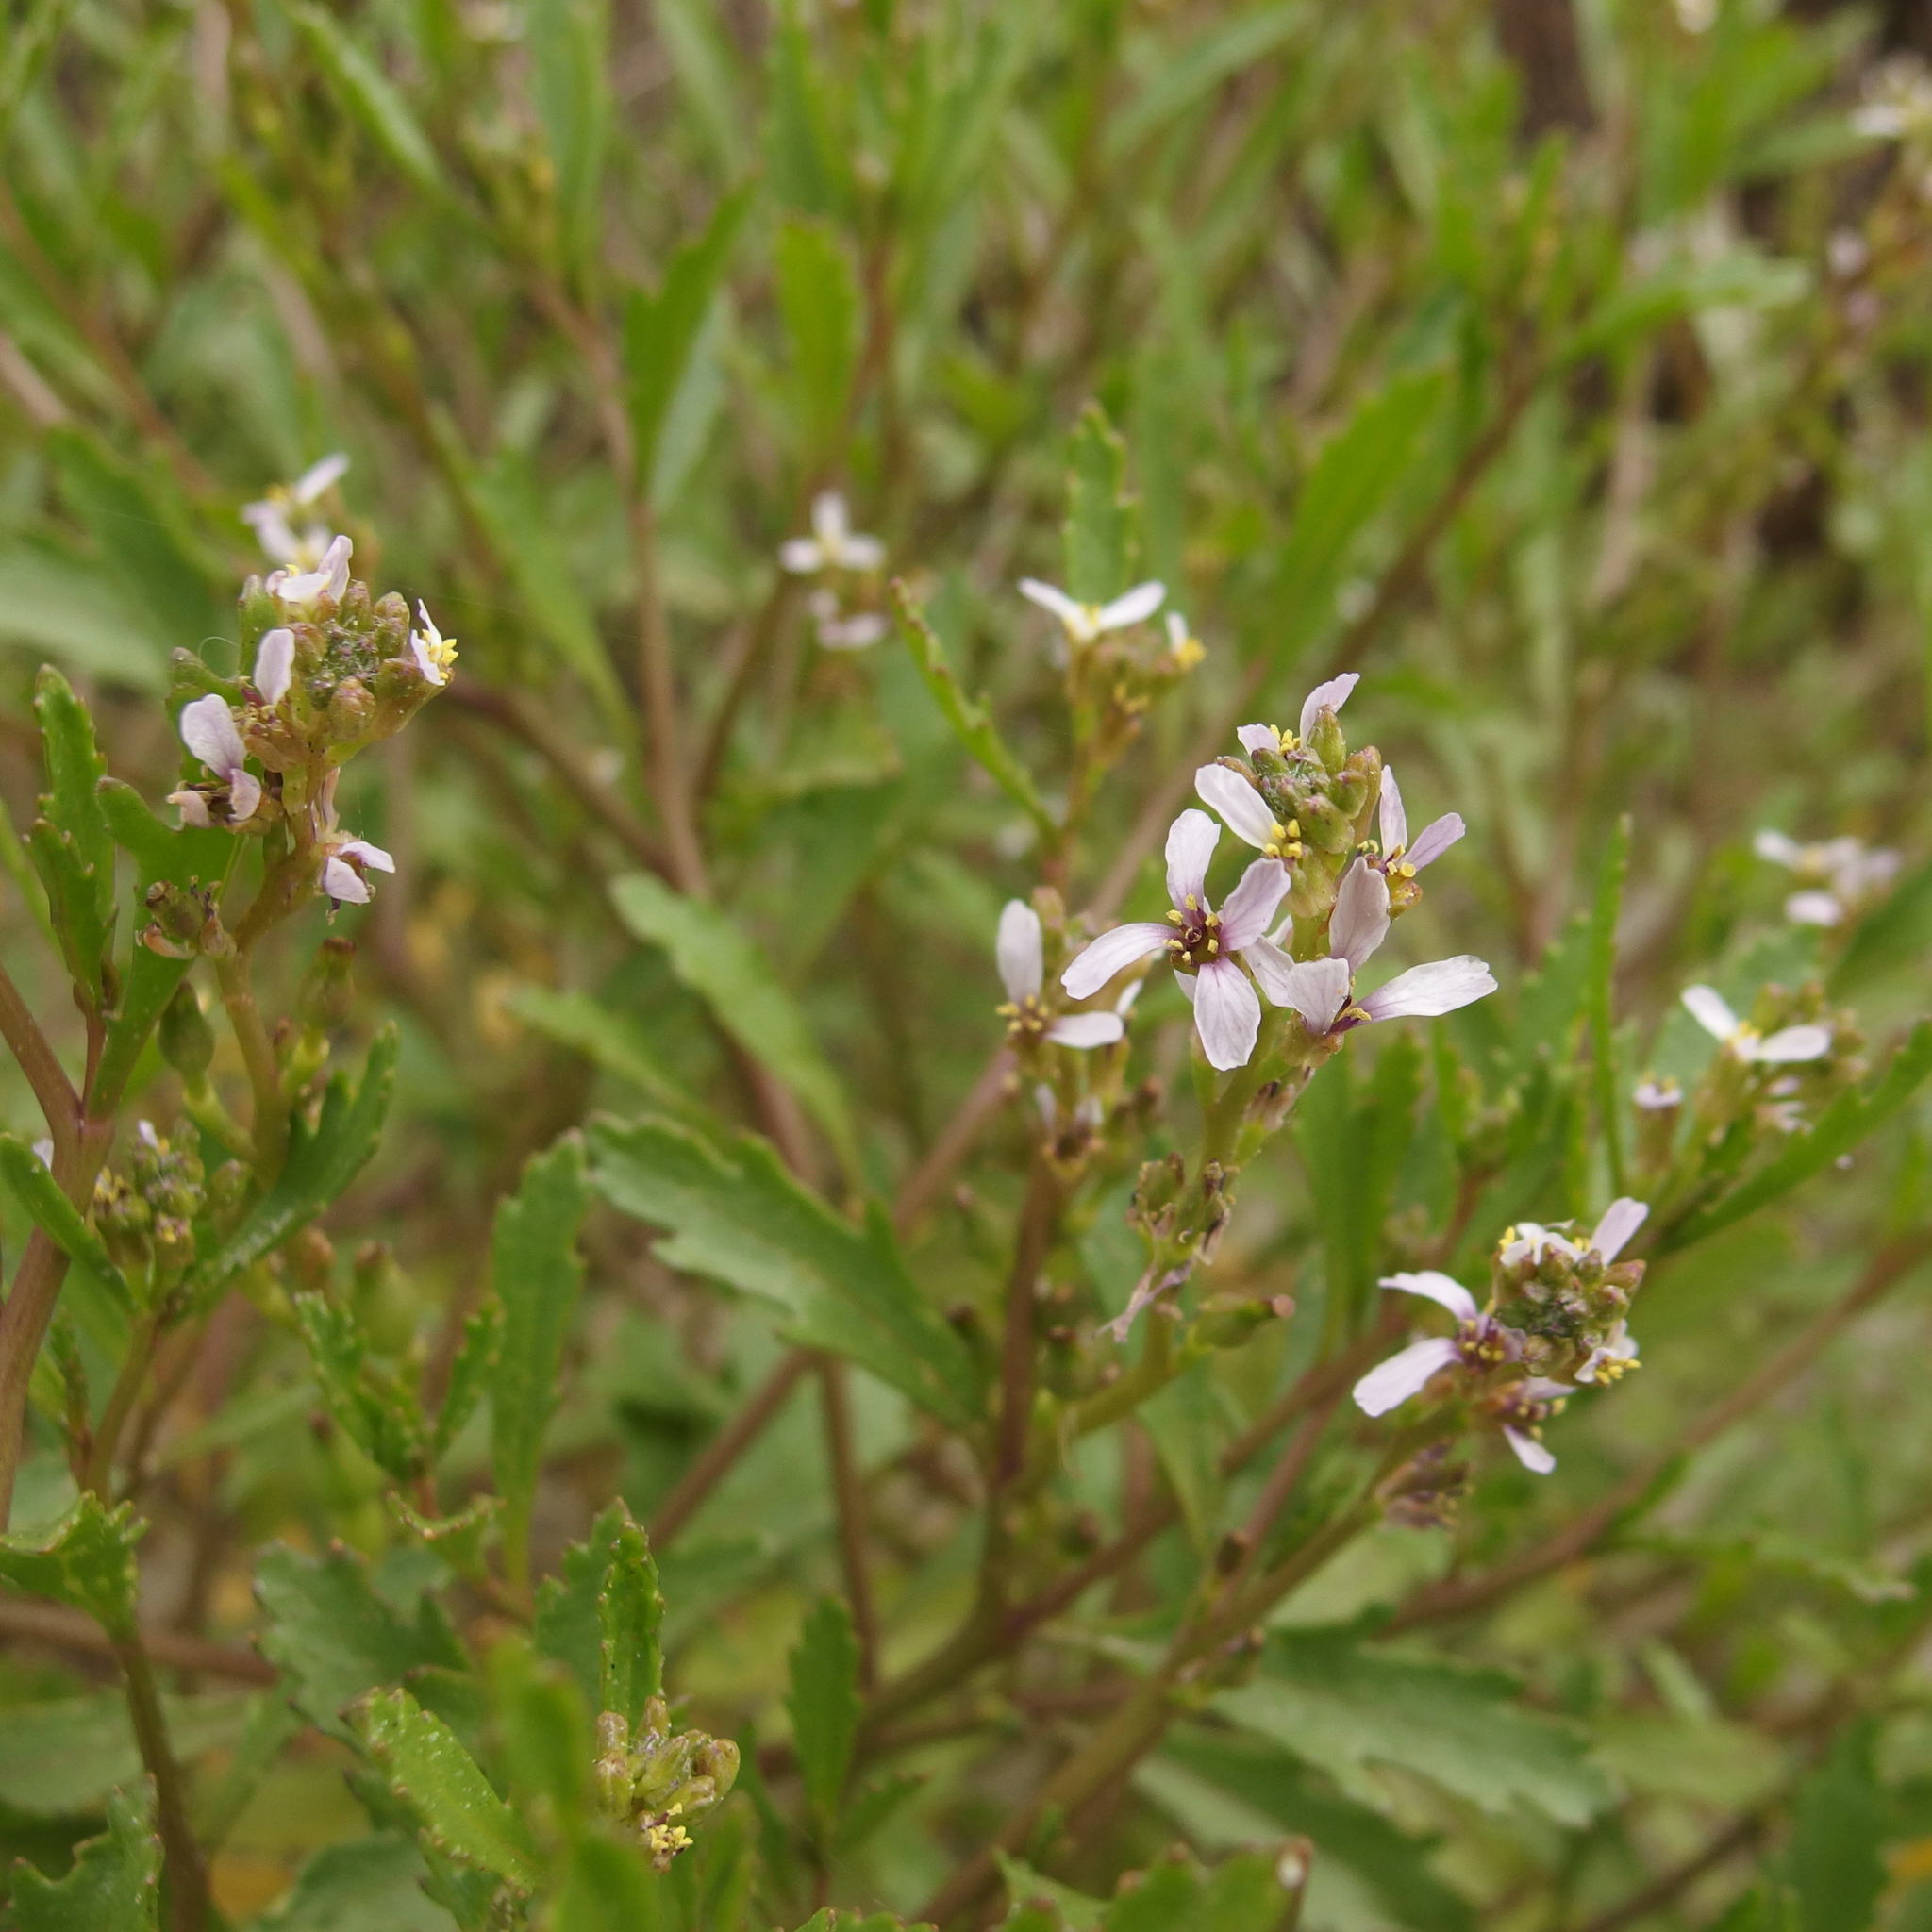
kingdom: Plantae
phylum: Tracheophyta
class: Magnoliopsida
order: Brassicales
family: Brassicaceae
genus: Cakile
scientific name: Cakile edentula
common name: American sea rocket
